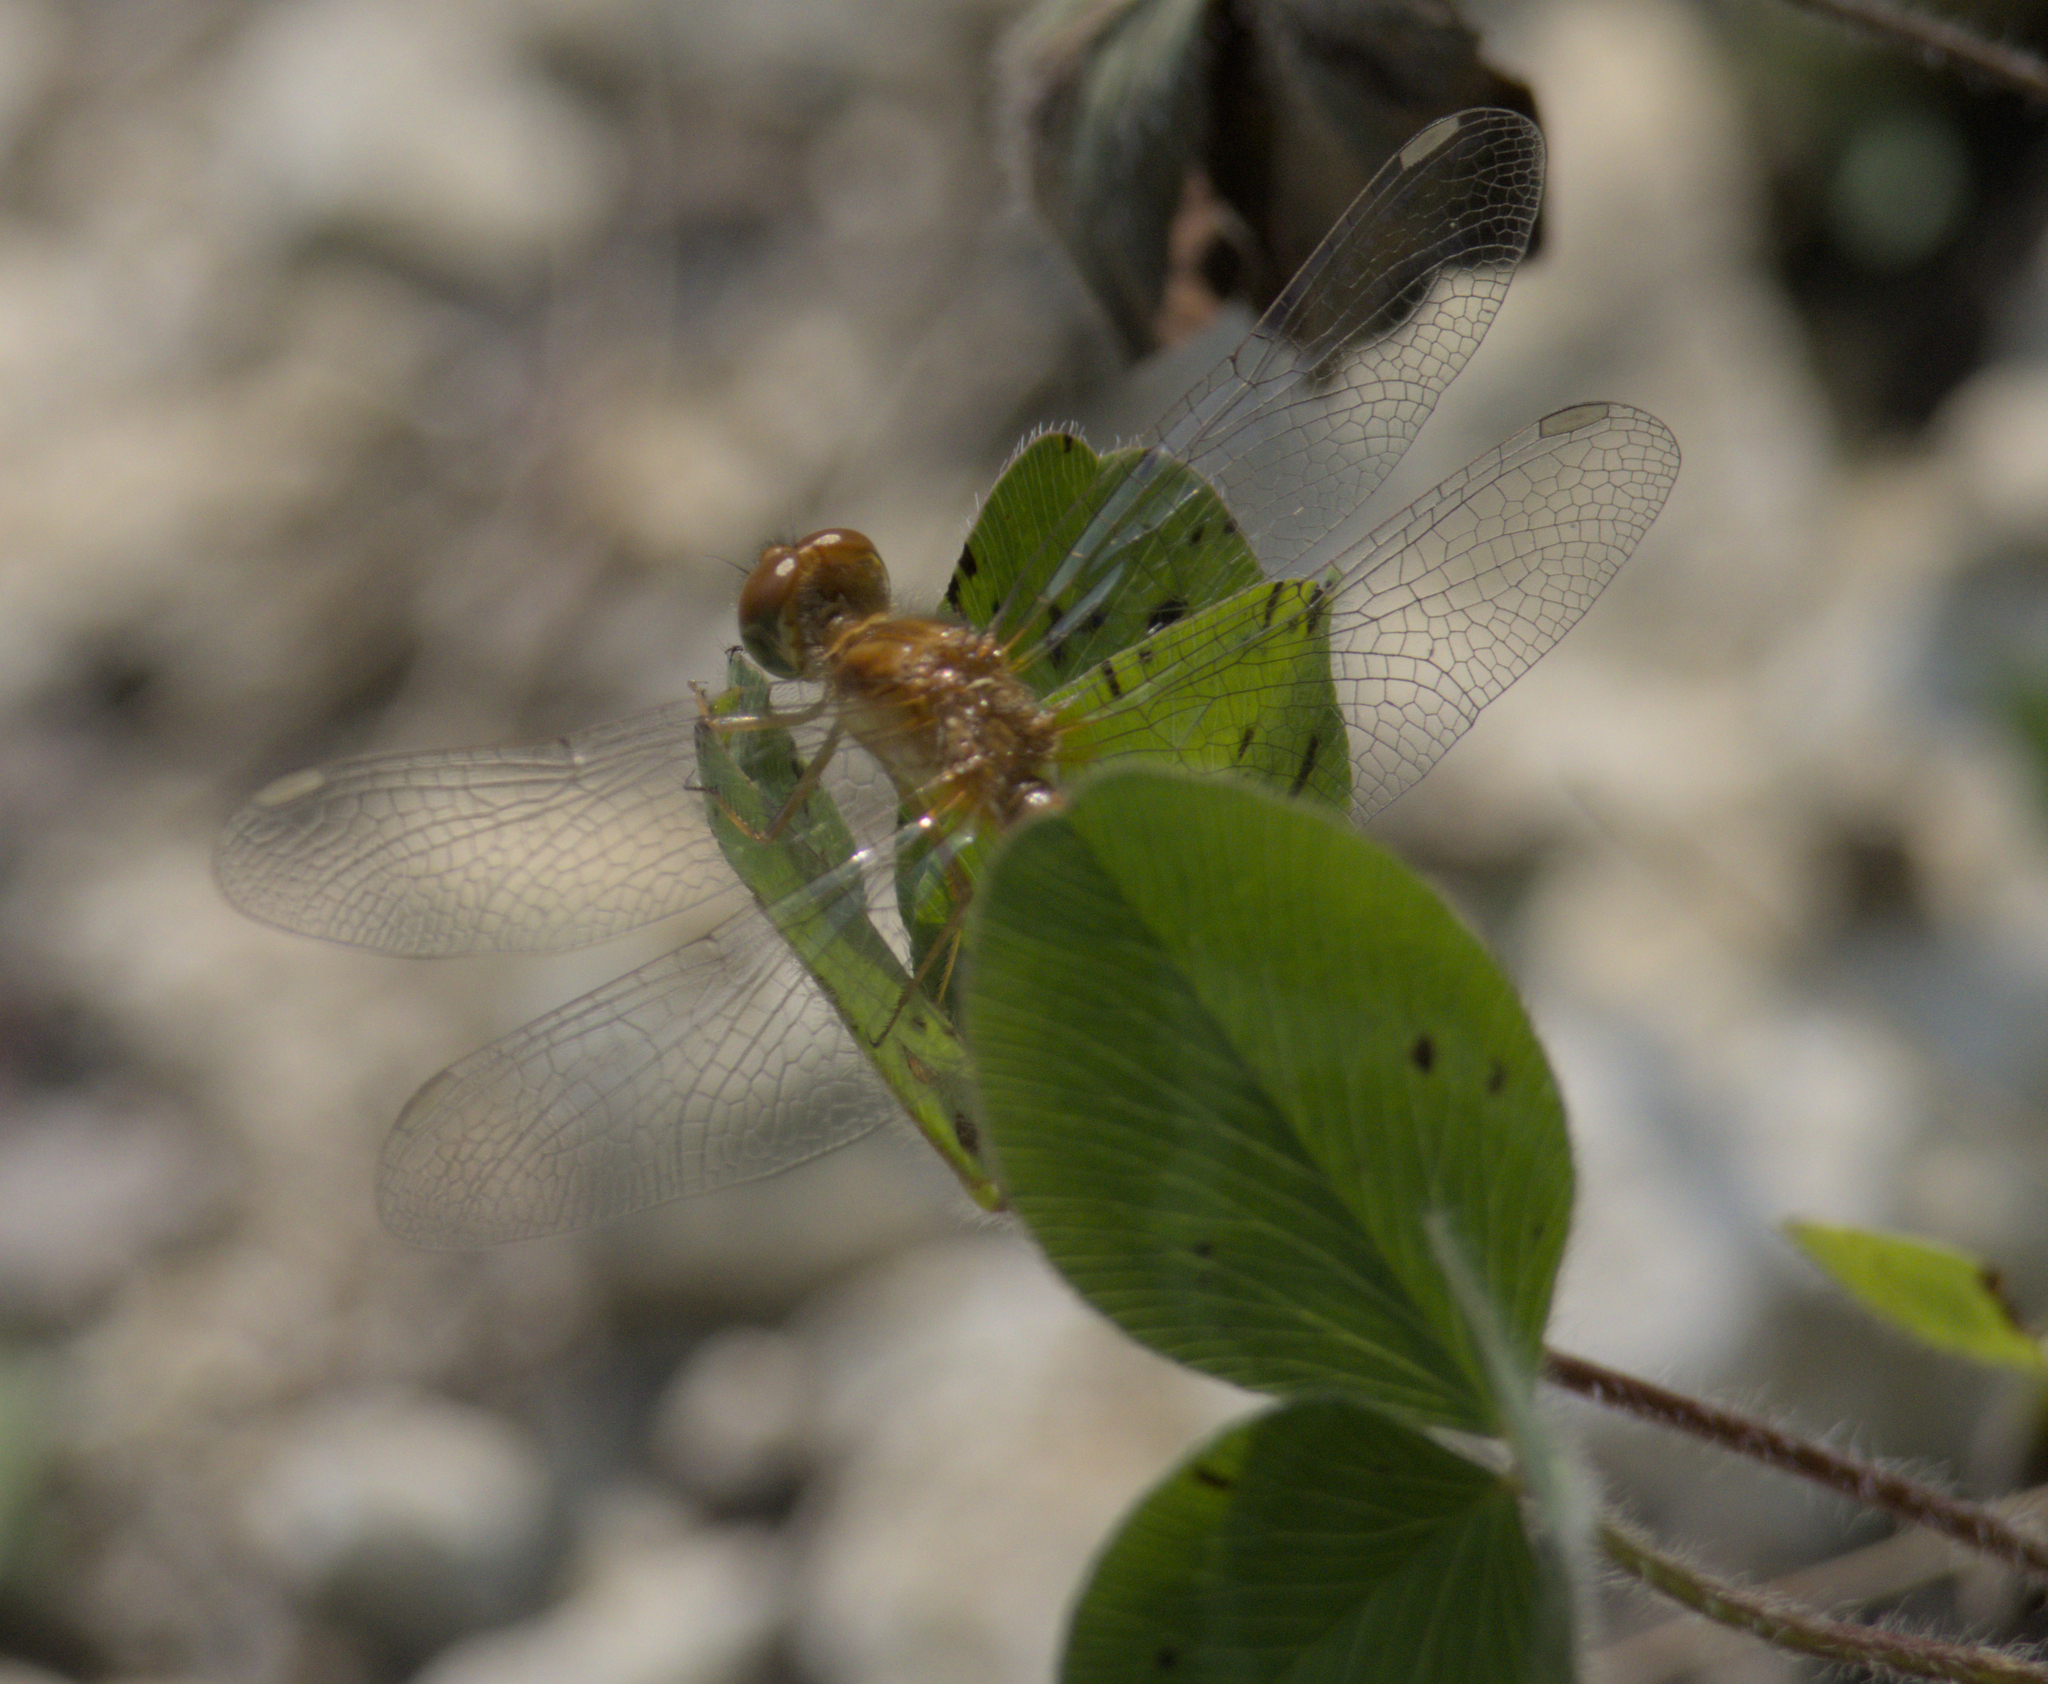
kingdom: Animalia
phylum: Arthropoda
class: Insecta
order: Odonata
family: Libellulidae
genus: Sympetrum
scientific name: Sympetrum vicinum
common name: Autumn meadowhawk
